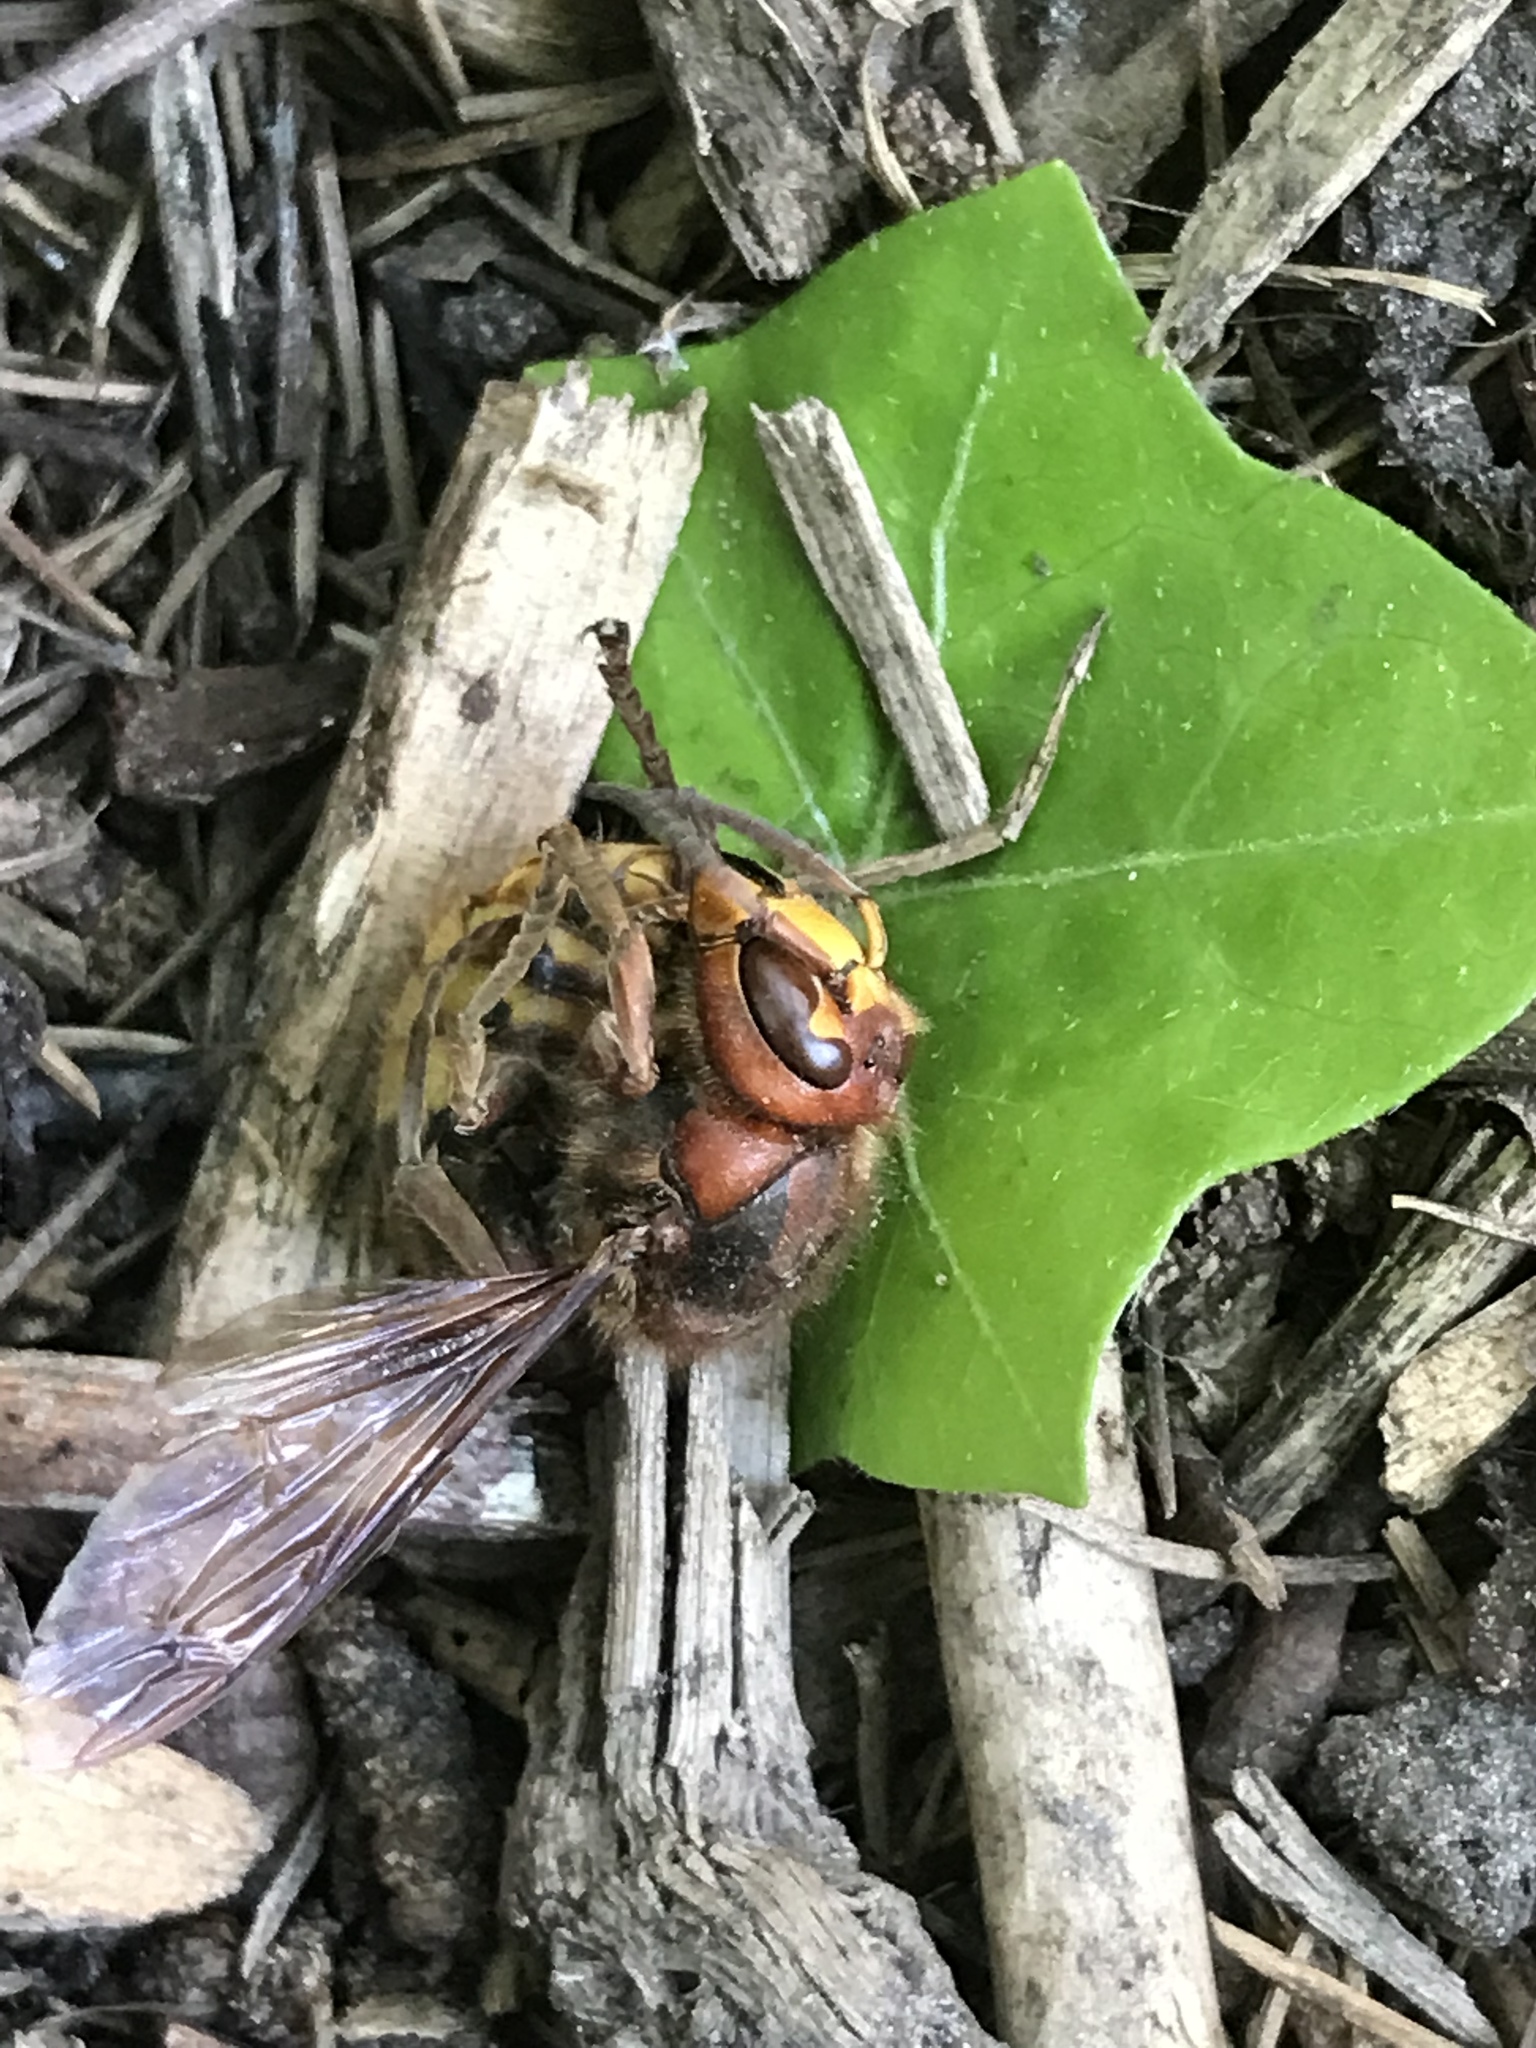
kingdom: Animalia
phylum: Arthropoda
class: Insecta
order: Hymenoptera
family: Vespidae
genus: Vespa
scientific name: Vespa crabro
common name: Hornet
